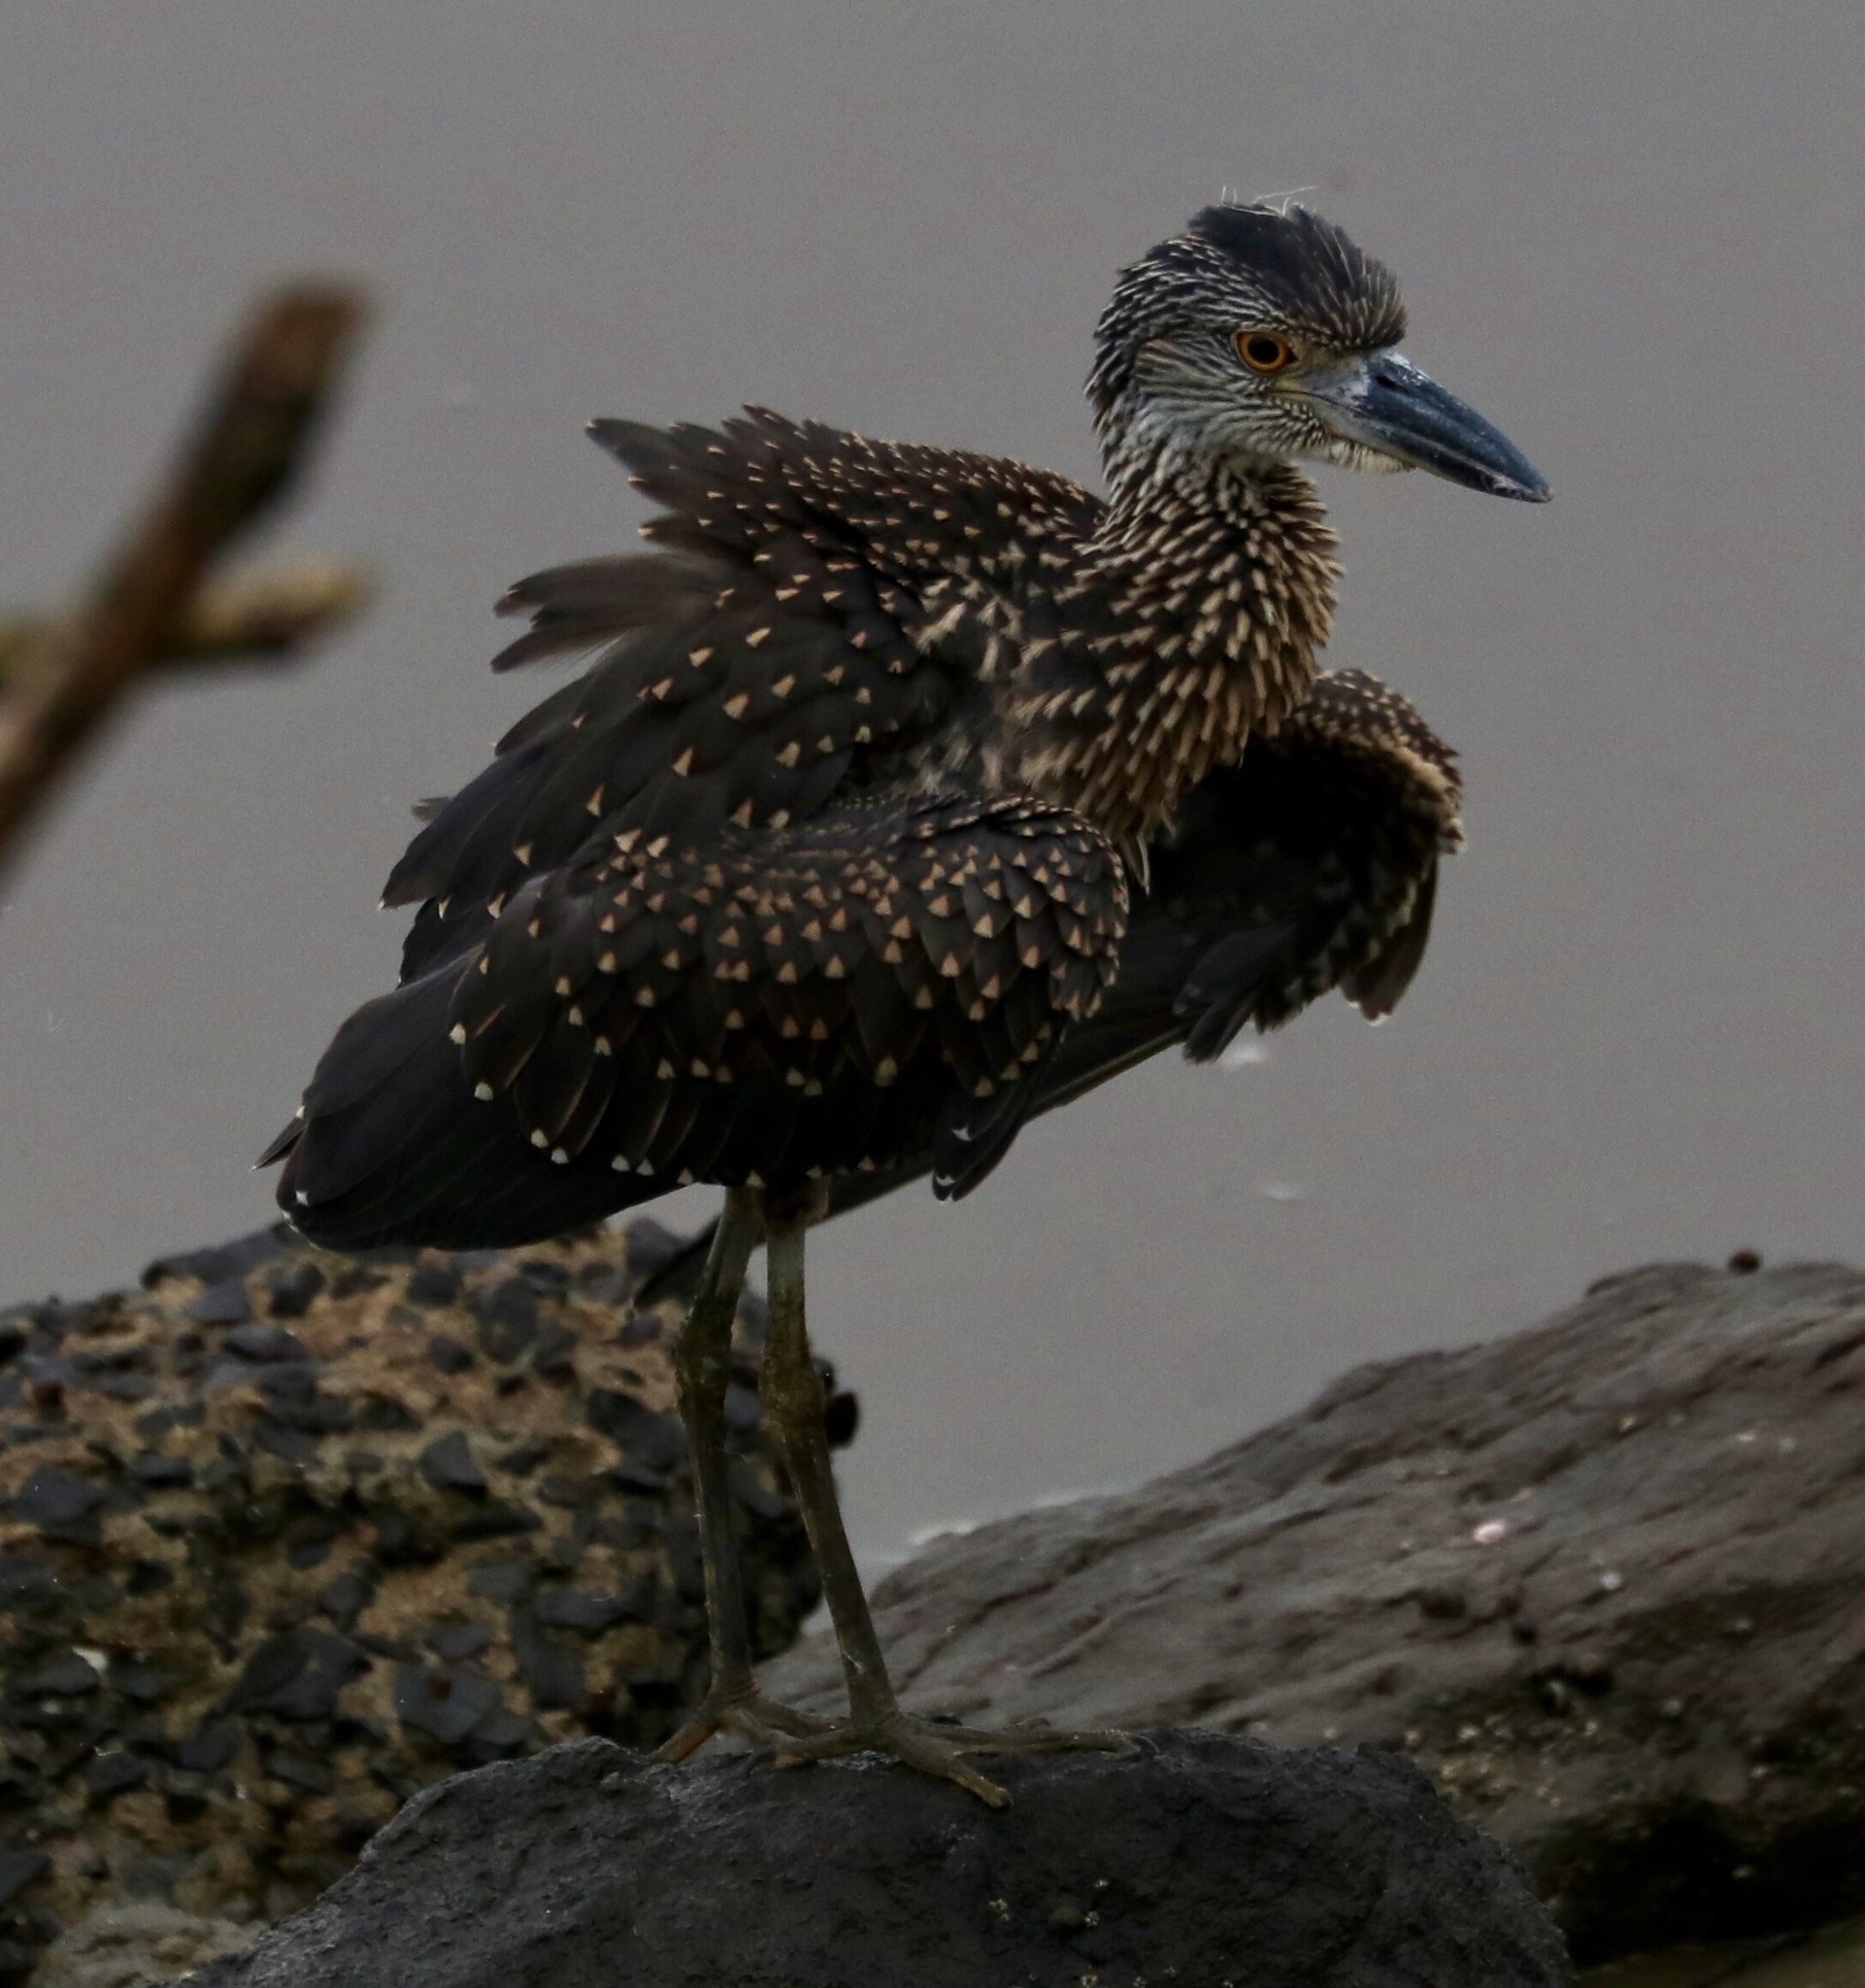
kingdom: Animalia
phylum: Chordata
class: Aves
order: Pelecaniformes
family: Ardeidae
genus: Nyctanassa
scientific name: Nyctanassa violacea
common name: Yellow-crowned night heron
